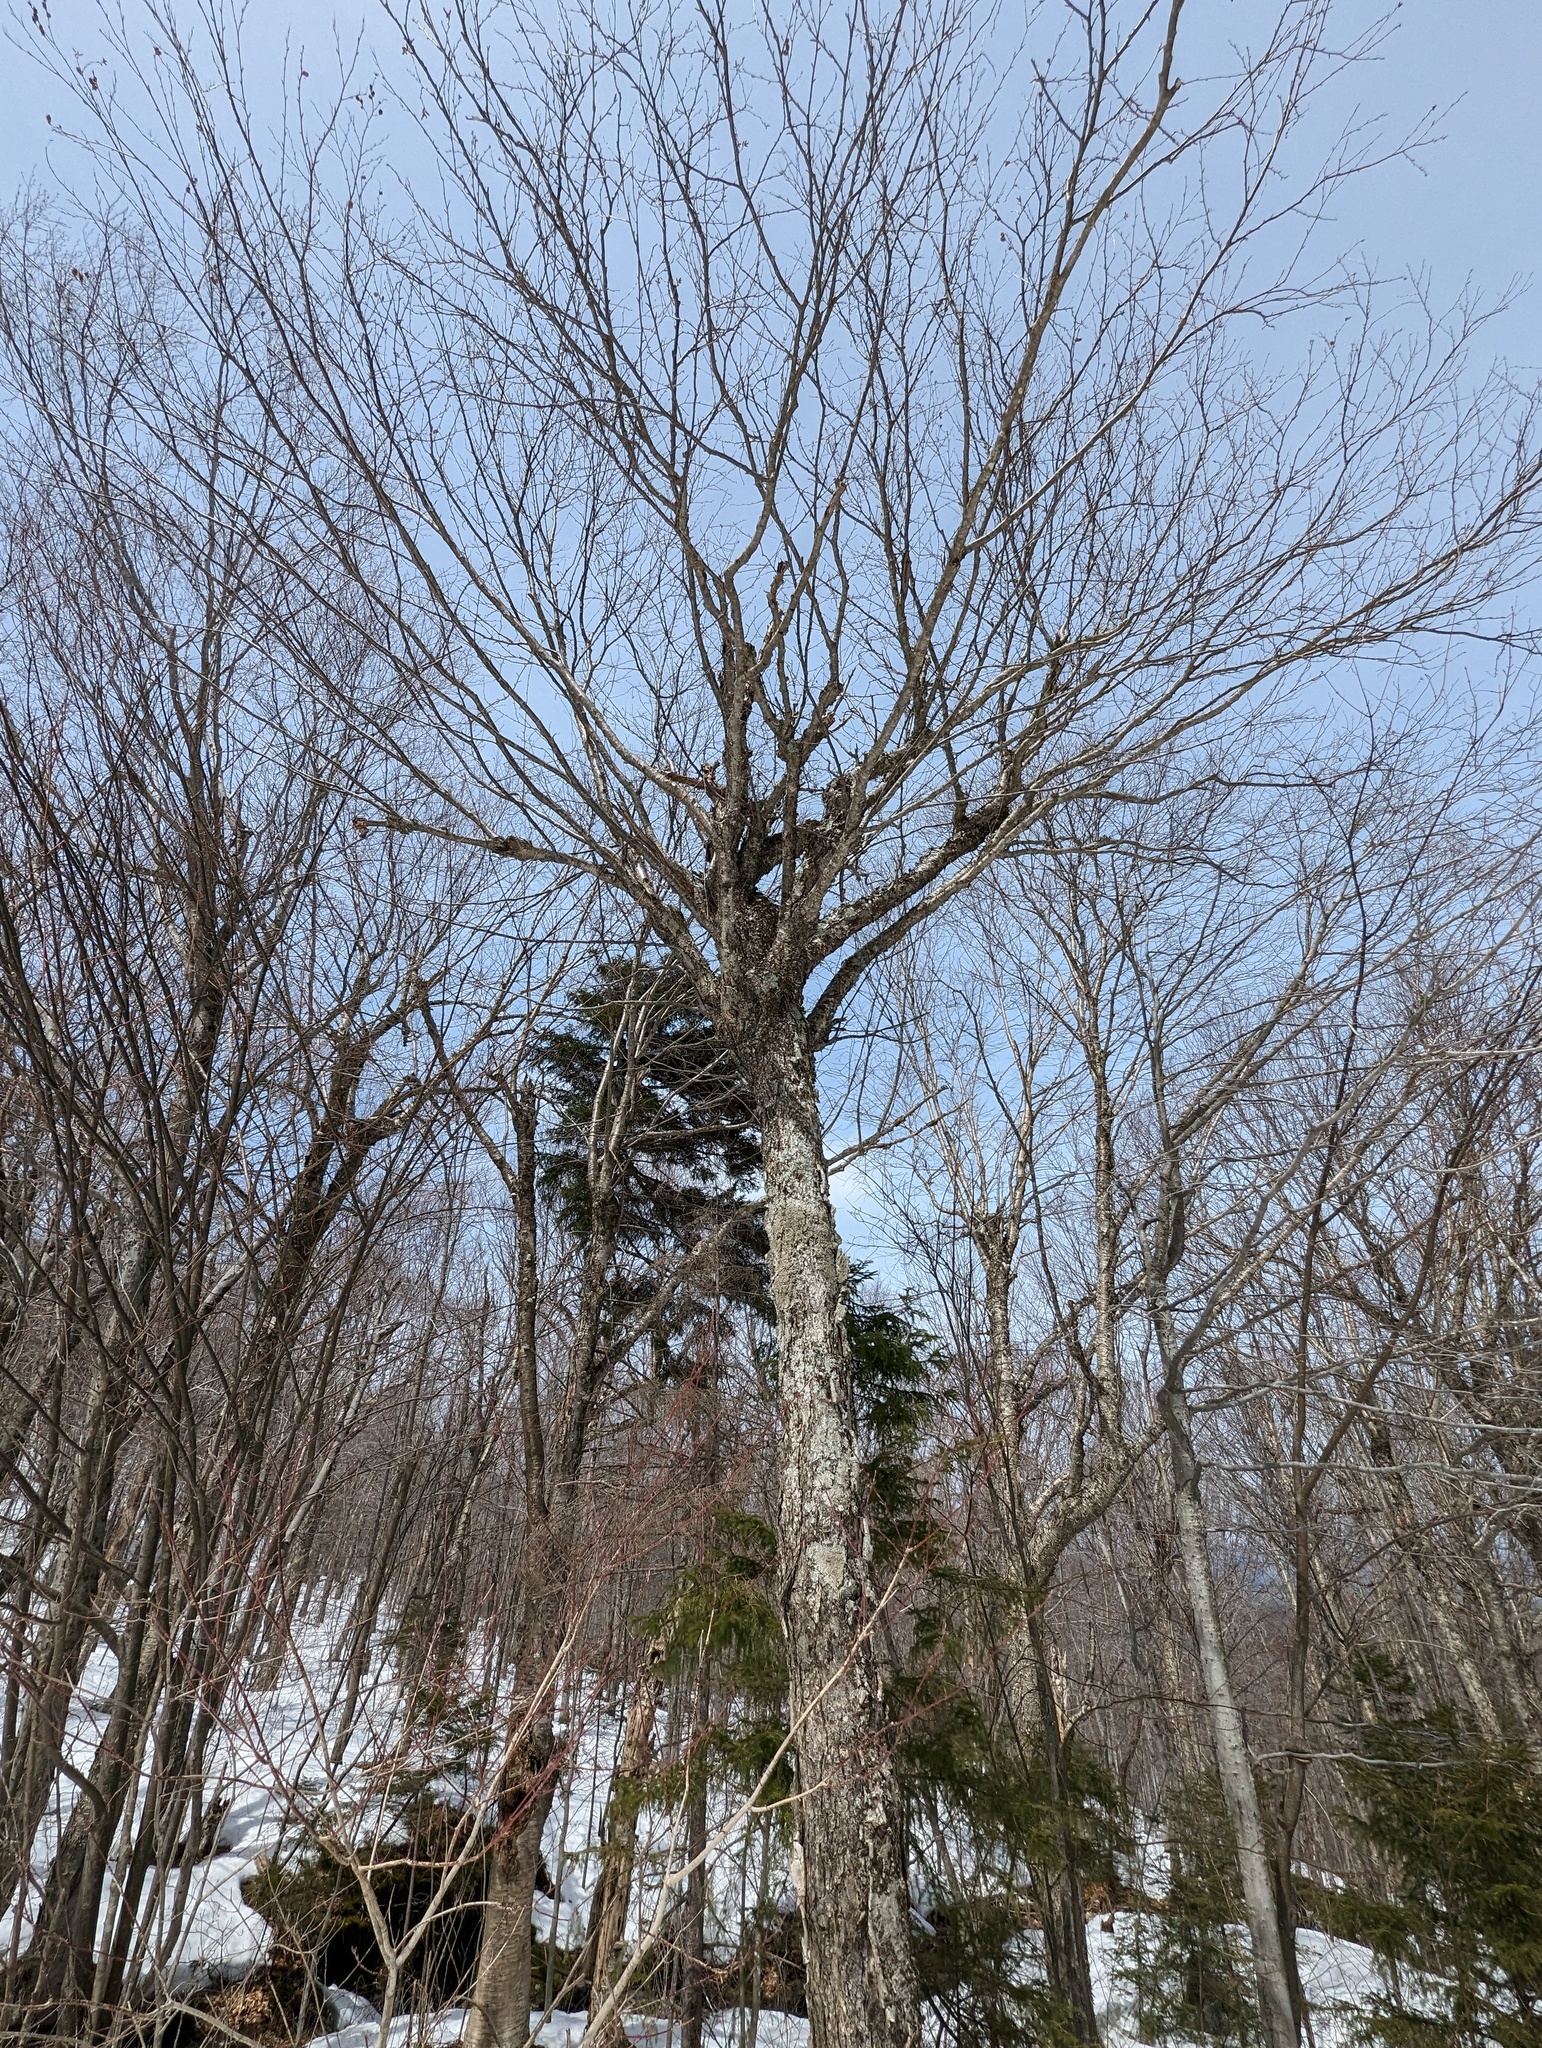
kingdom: Plantae
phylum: Tracheophyta
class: Magnoliopsida
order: Fagales
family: Betulaceae
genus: Betula
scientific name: Betula alleghaniensis
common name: Yellow birch
